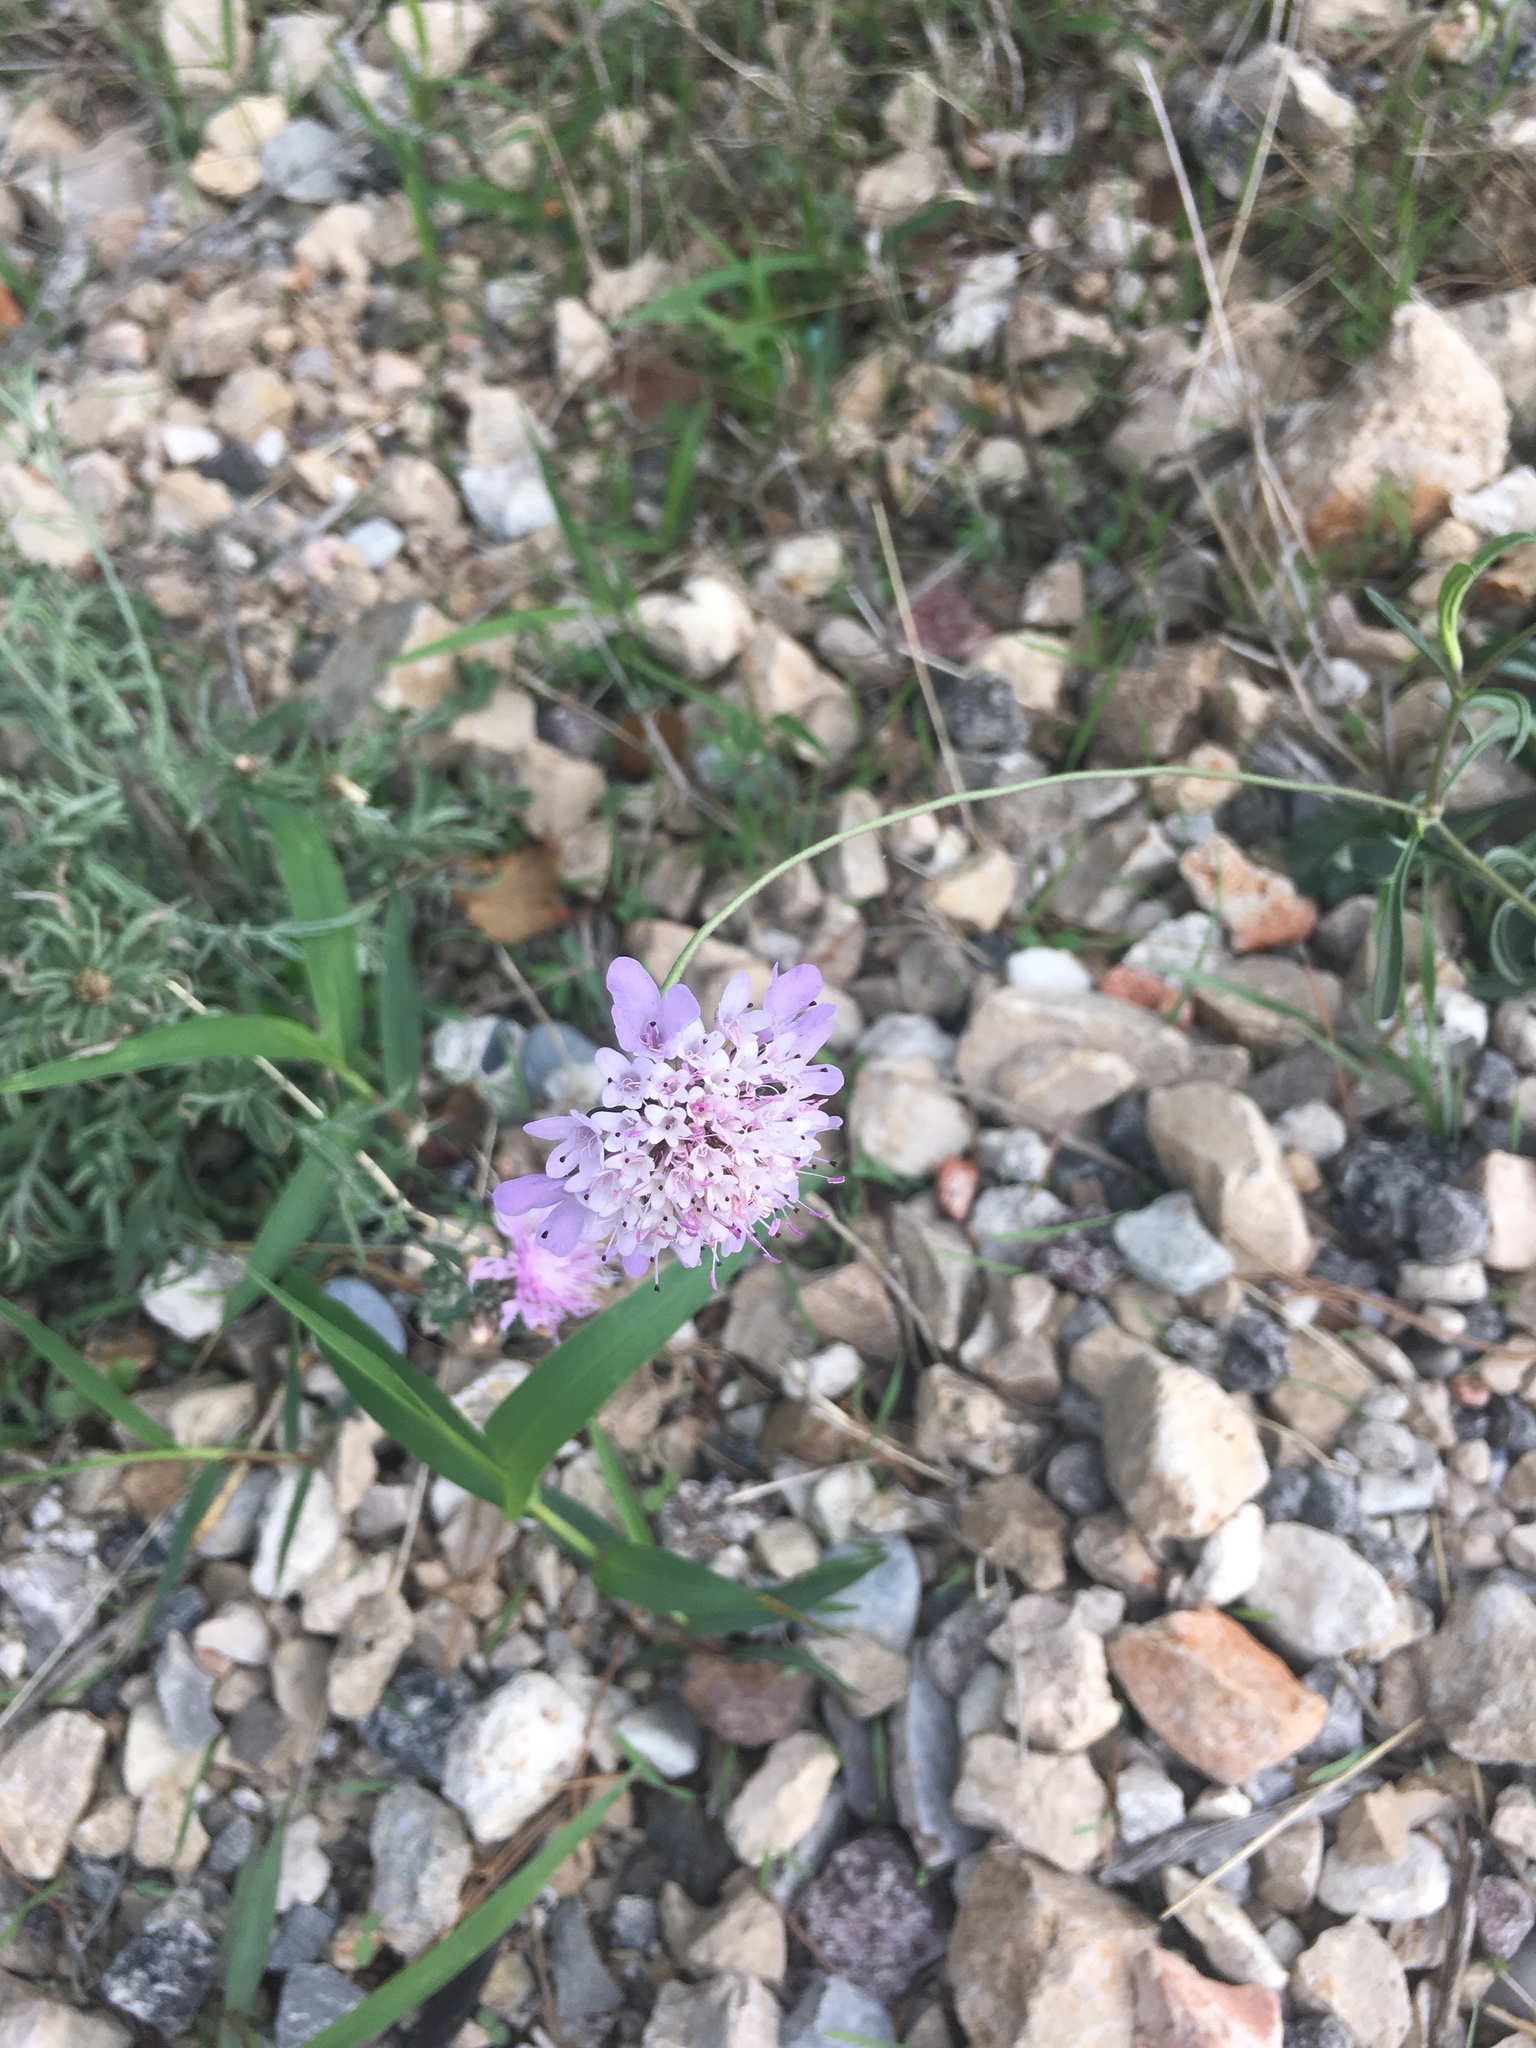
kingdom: Plantae
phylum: Tracheophyta
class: Magnoliopsida
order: Dipsacales
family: Caprifoliaceae
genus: Knautia
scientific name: Knautia arvensis
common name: Field scabiosa
